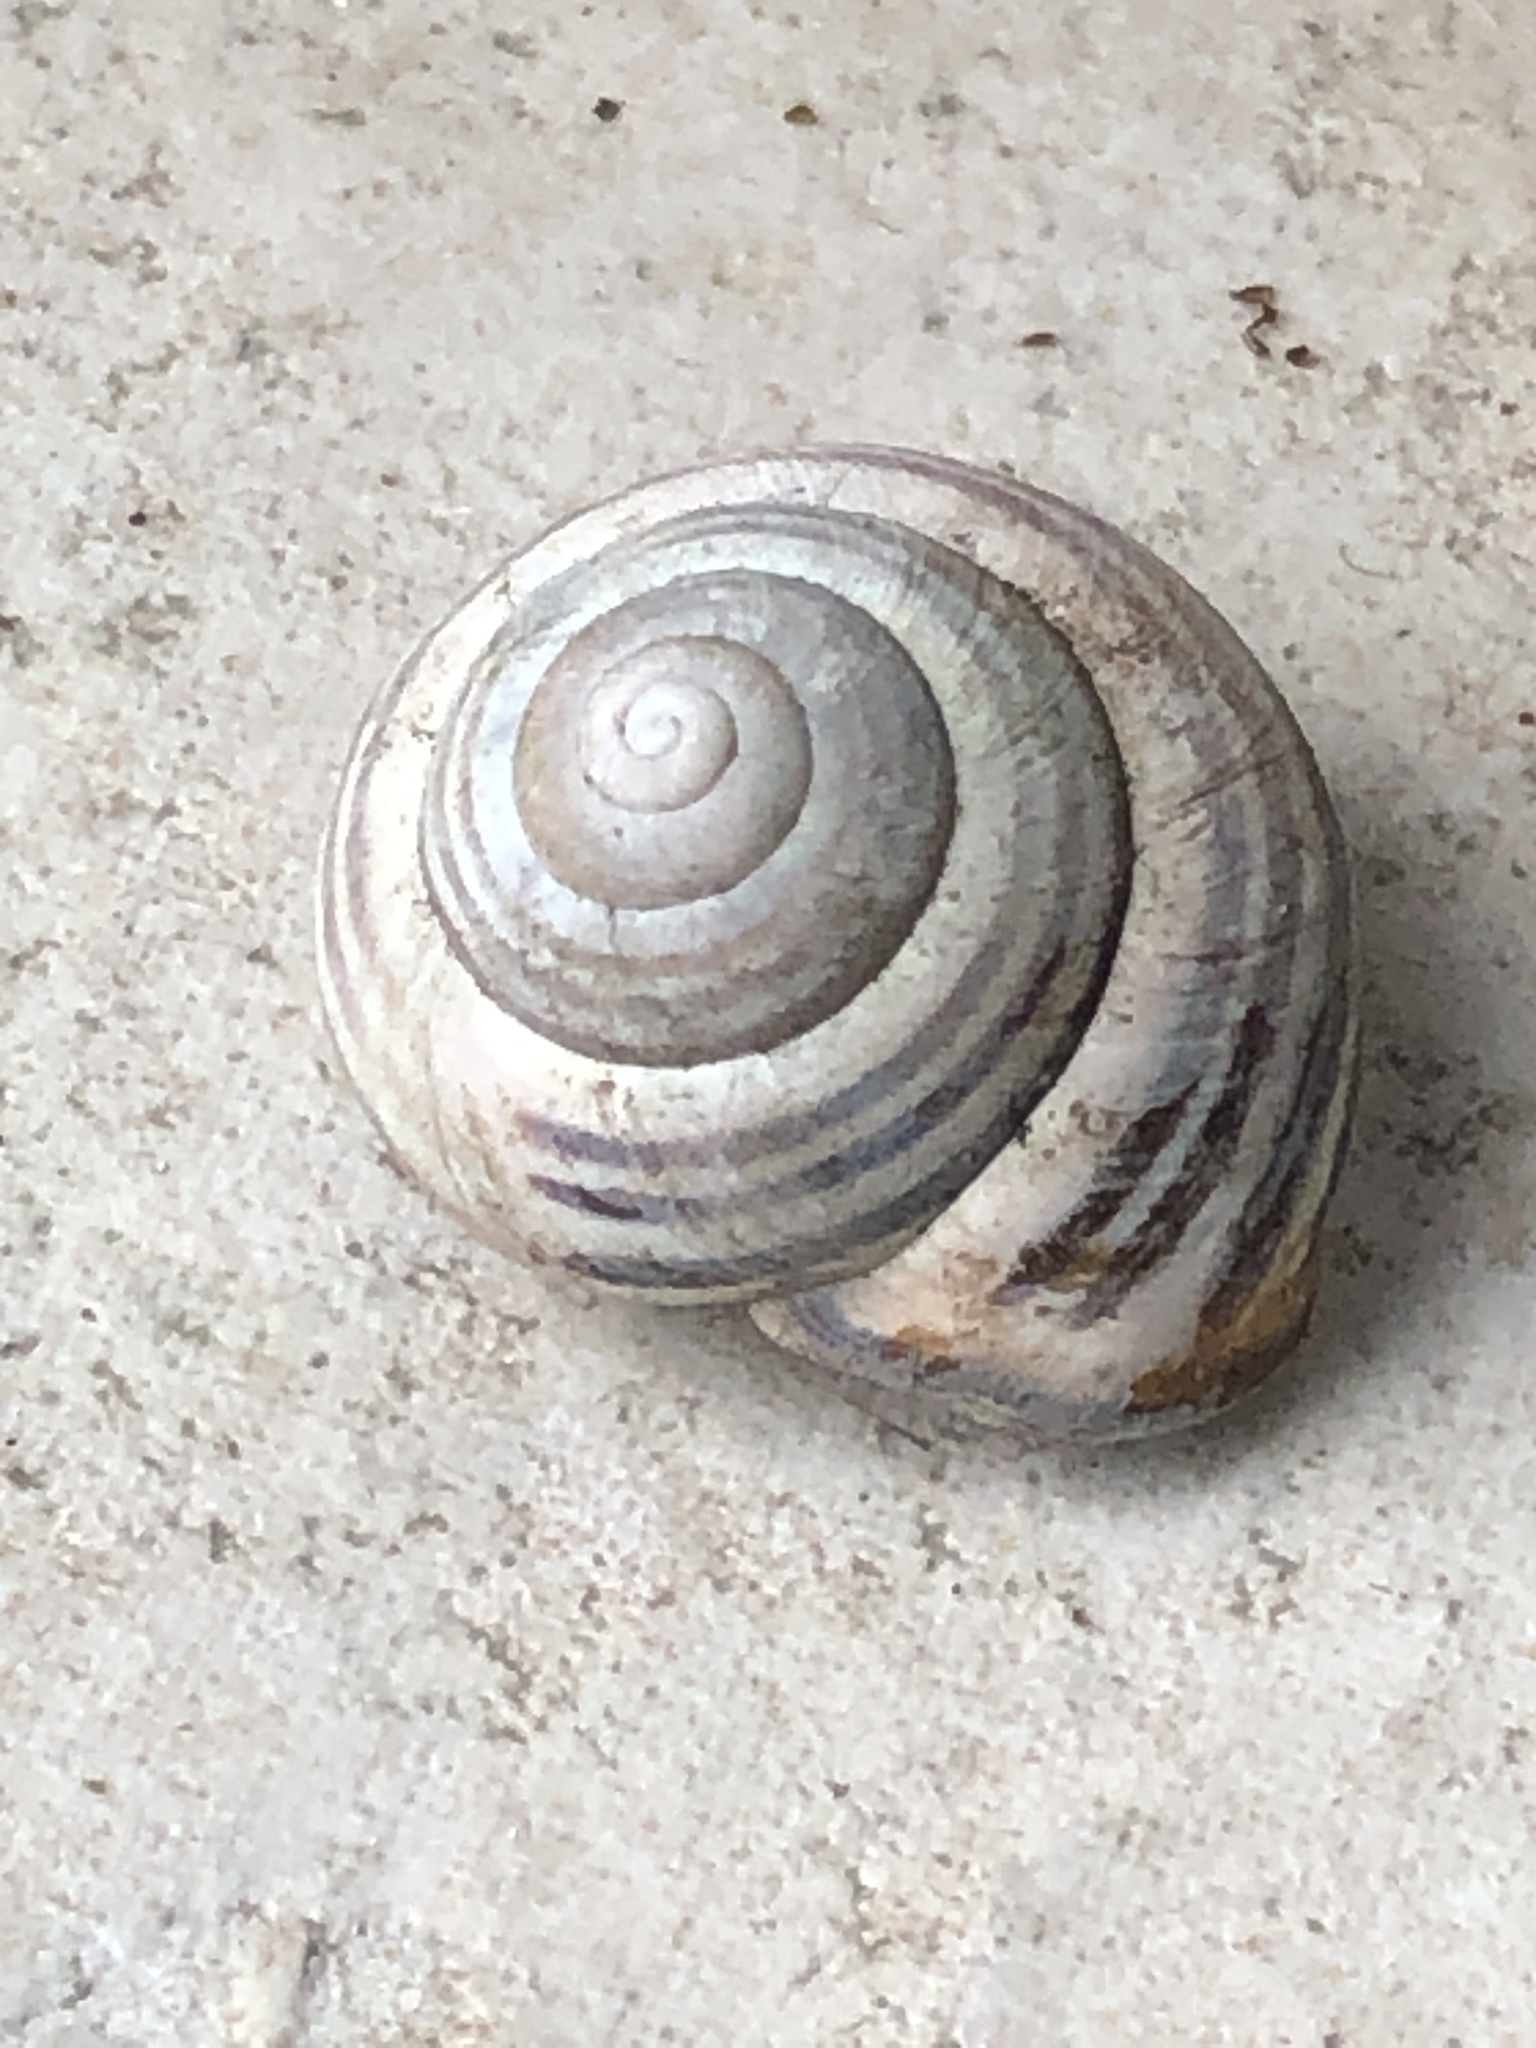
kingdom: Animalia
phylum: Mollusca
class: Gastropoda
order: Stylommatophora
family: Helicidae
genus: Cepaea
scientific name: Cepaea nemoralis
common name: Grovesnail
